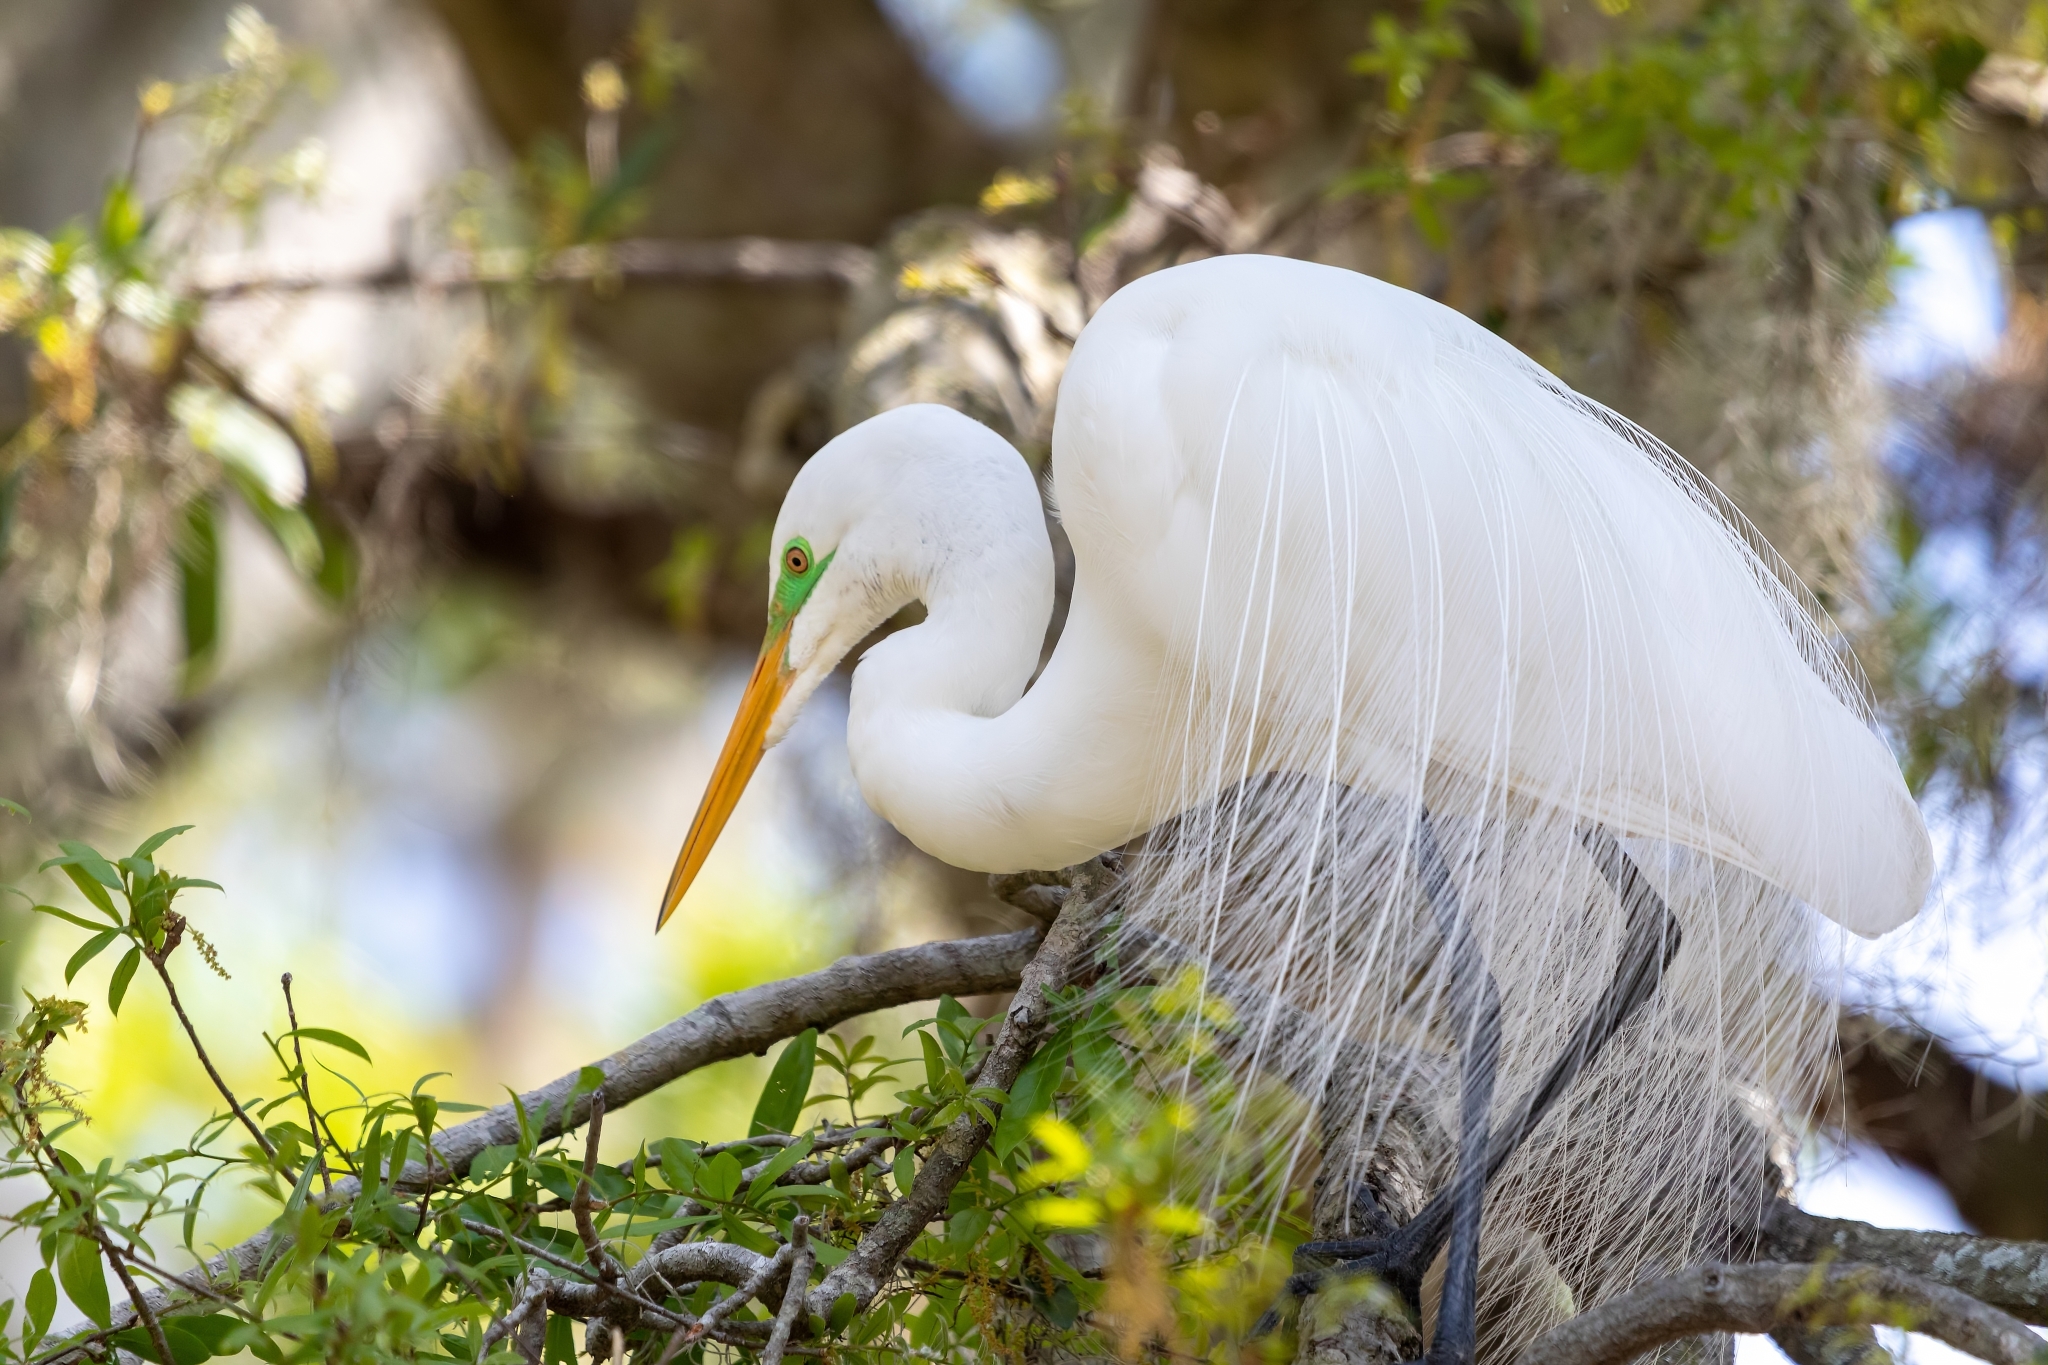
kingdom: Animalia
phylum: Chordata
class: Aves
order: Pelecaniformes
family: Ardeidae
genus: Ardea
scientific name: Ardea alba
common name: Great egret
